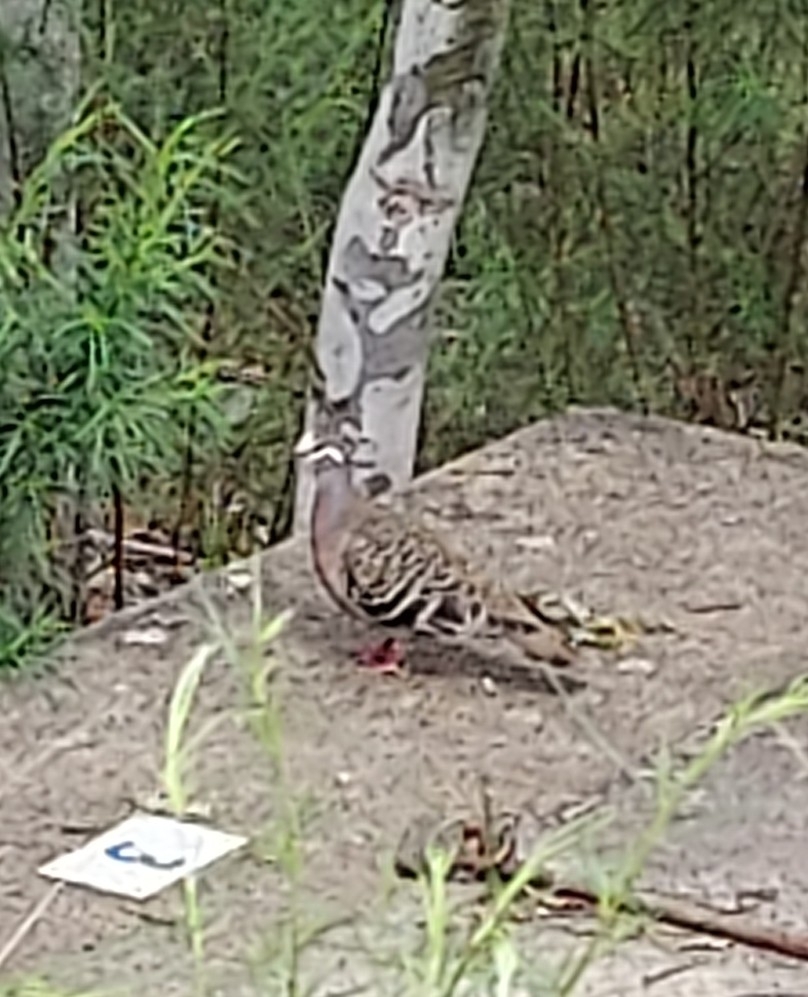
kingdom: Animalia
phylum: Chordata
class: Aves
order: Columbiformes
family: Columbidae
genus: Phaps
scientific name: Phaps chalcoptera
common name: Common bronzewing
